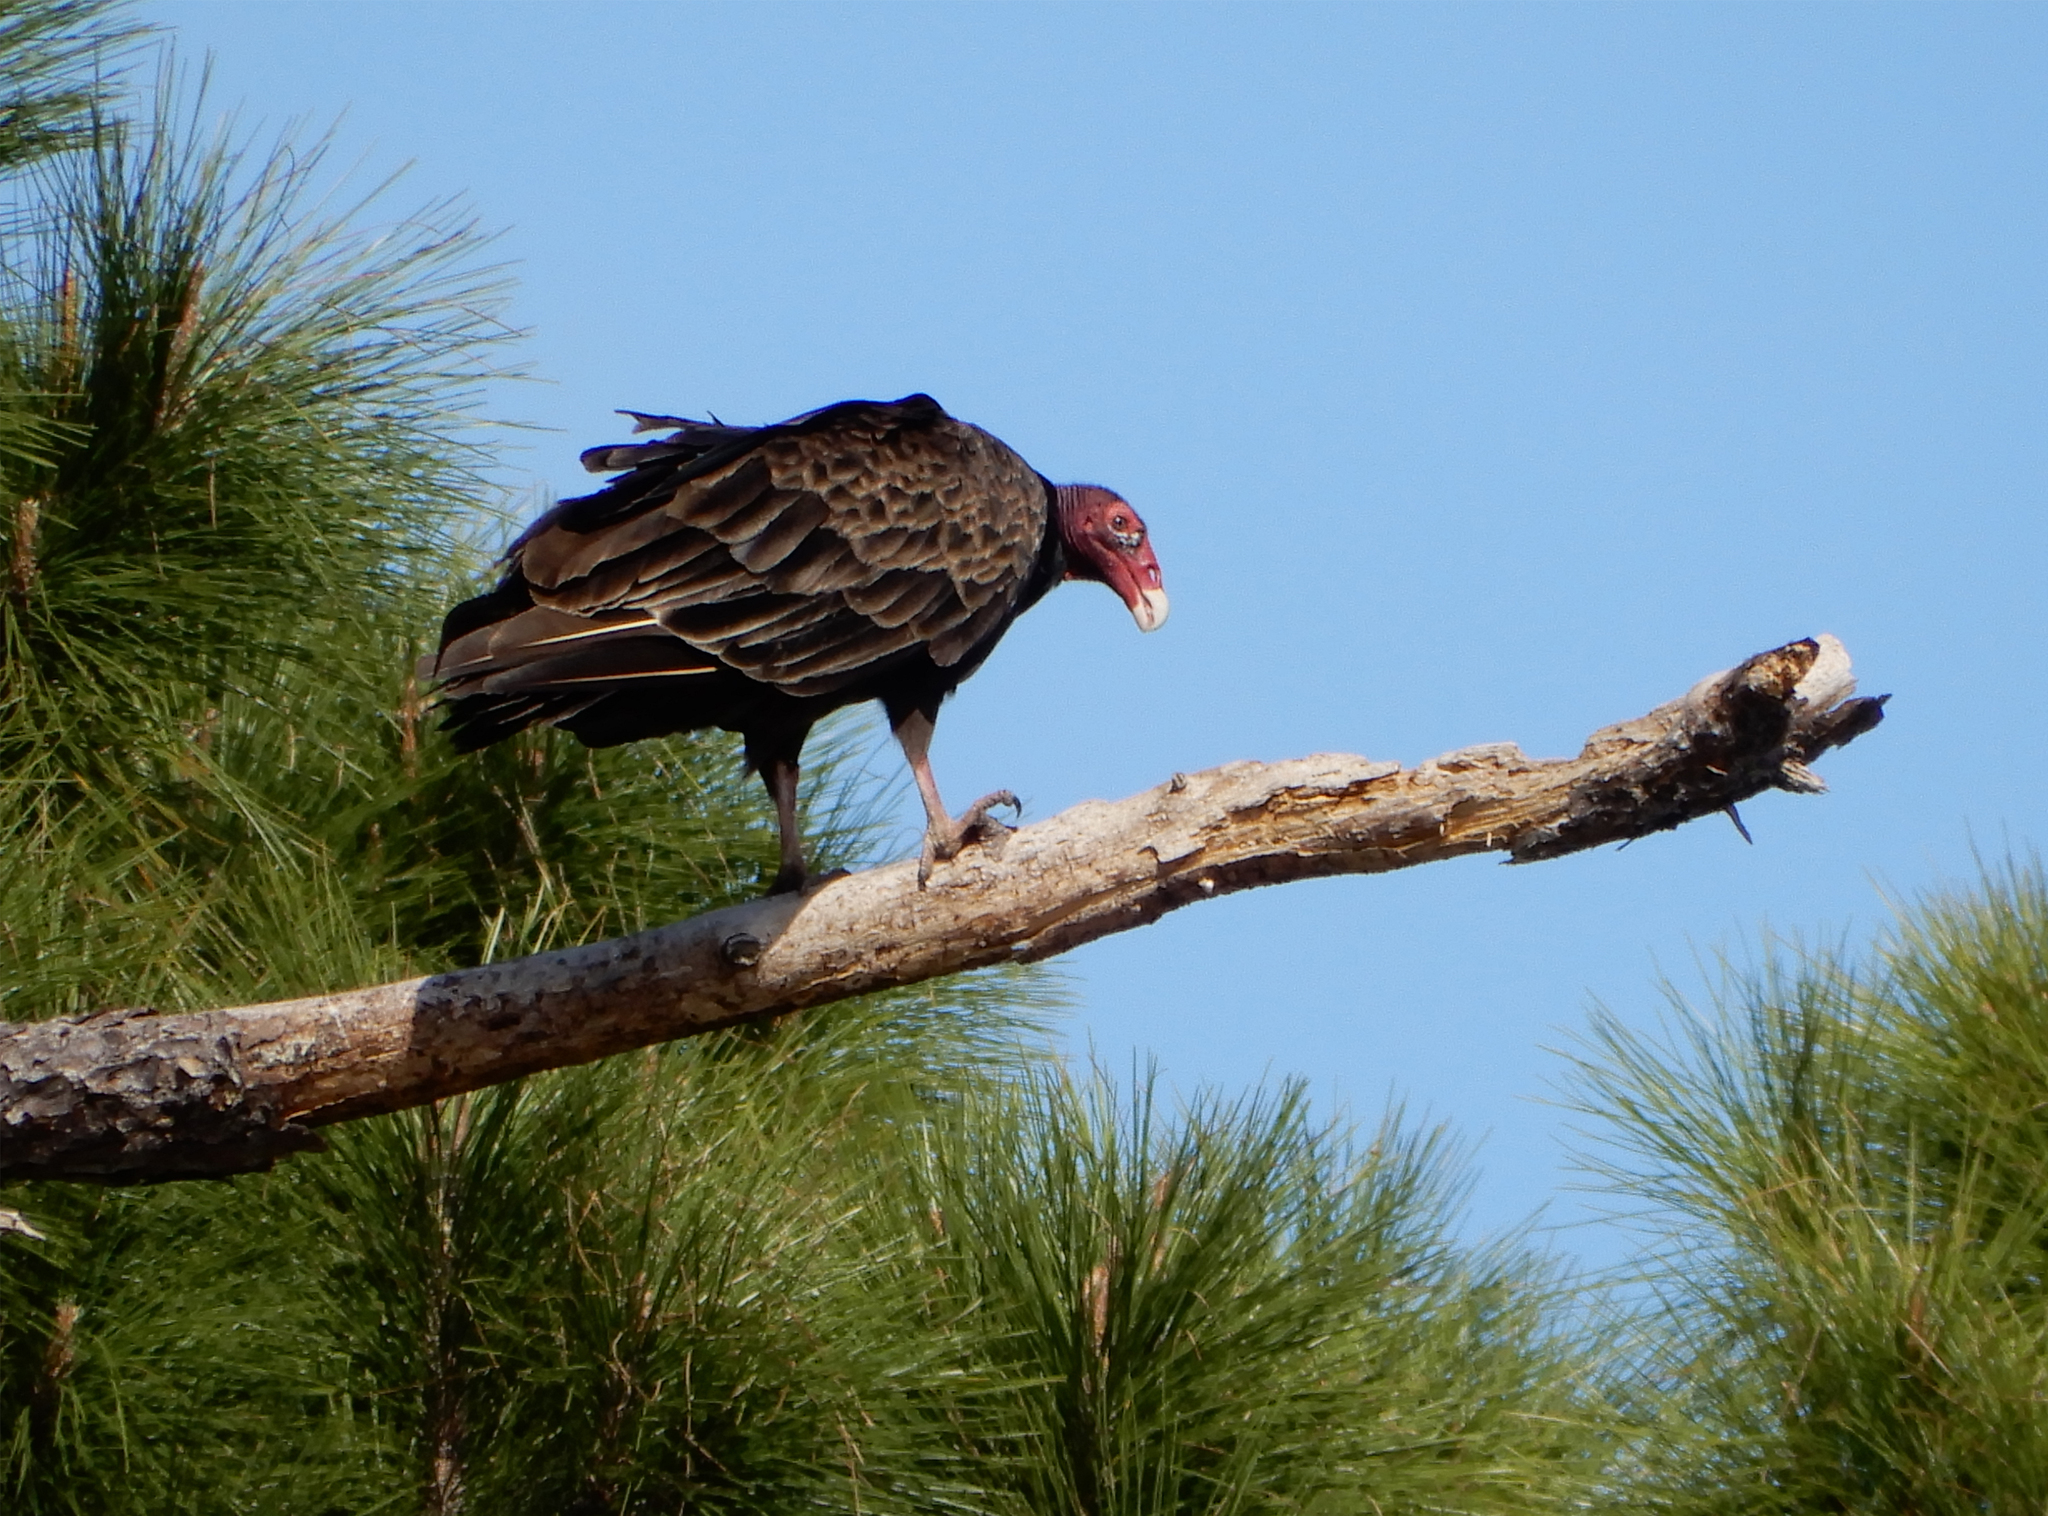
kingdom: Animalia
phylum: Chordata
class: Aves
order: Accipitriformes
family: Cathartidae
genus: Cathartes
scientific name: Cathartes aura
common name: Turkey vulture
